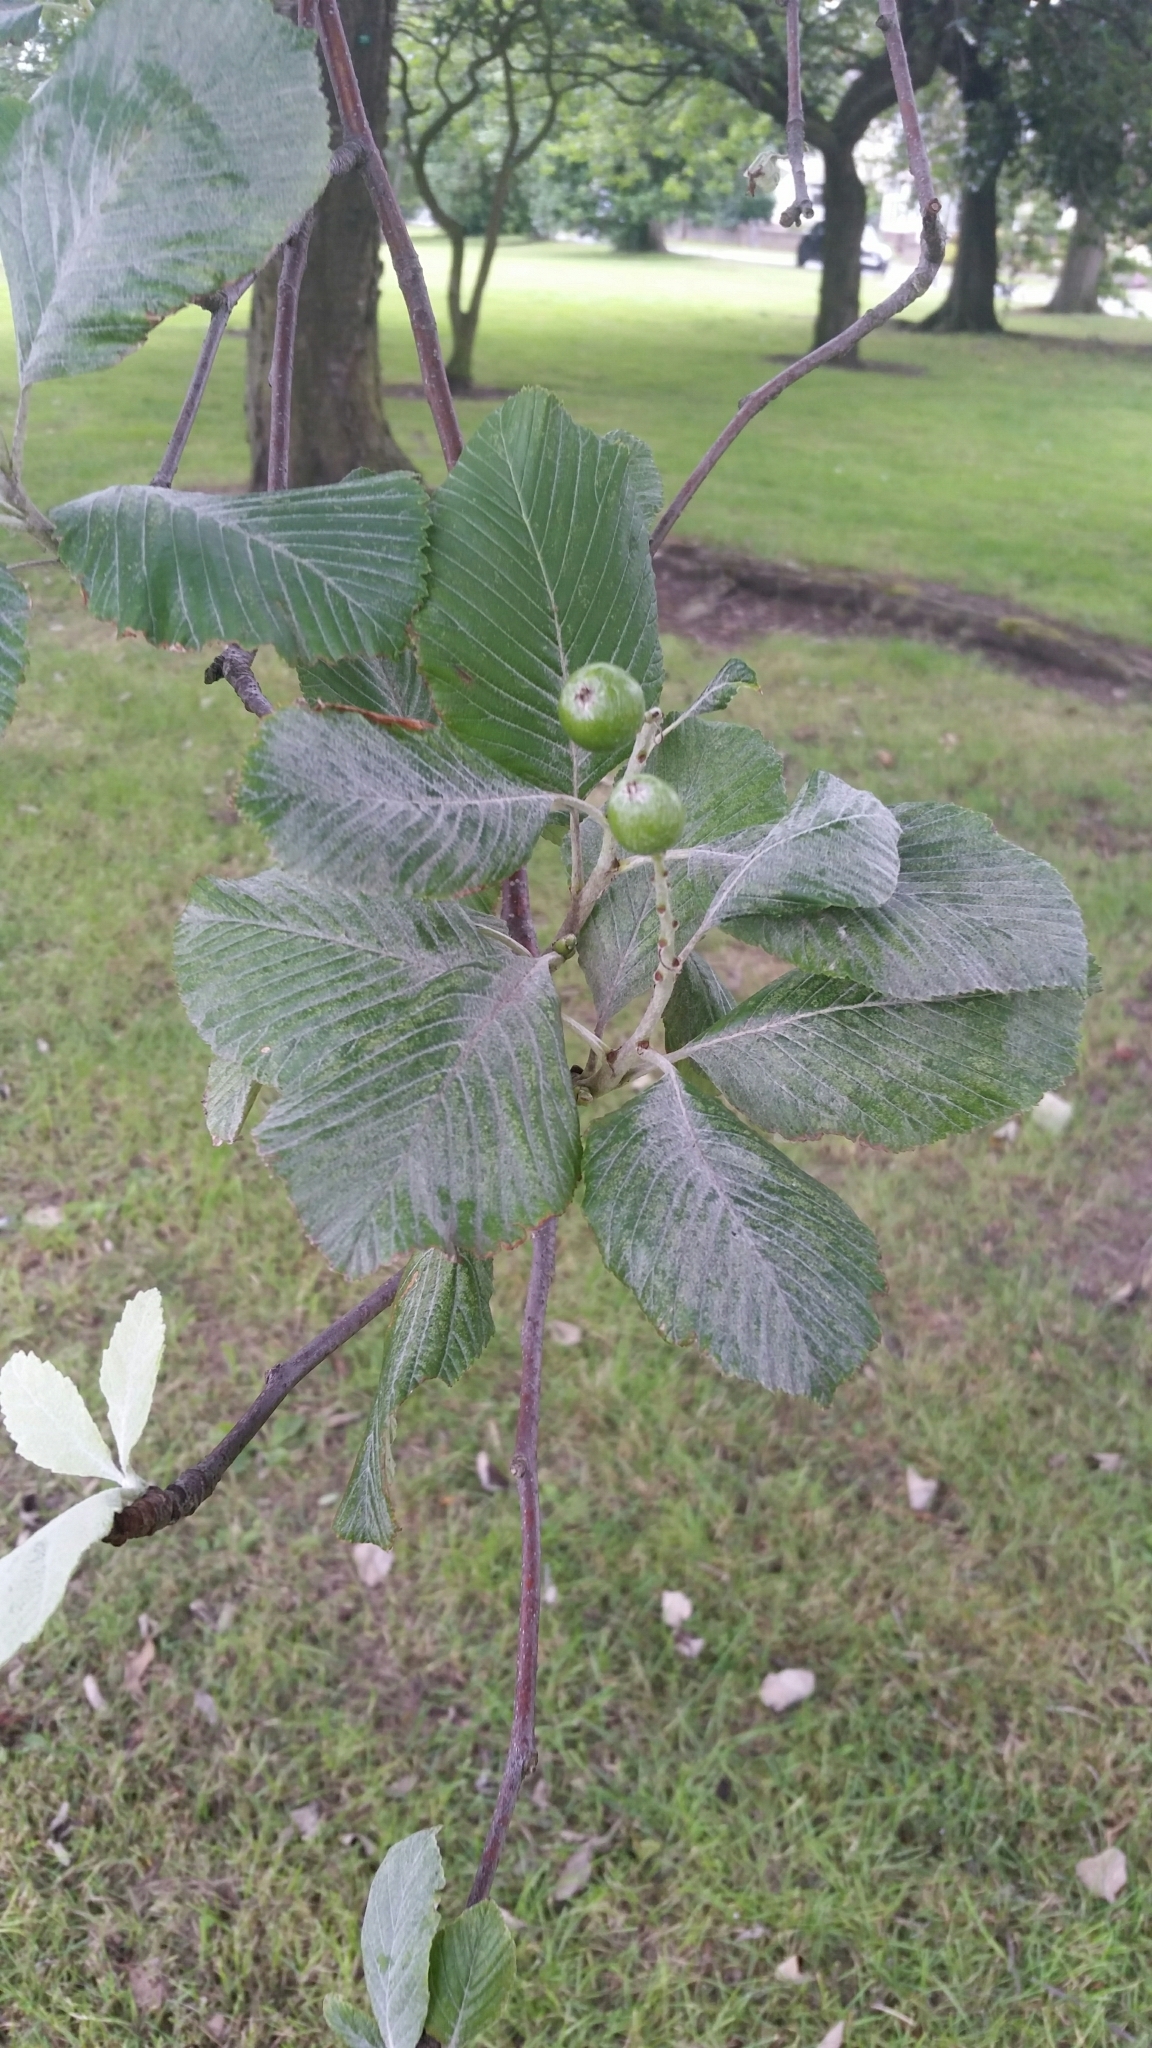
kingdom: Plantae
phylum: Tracheophyta
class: Magnoliopsida
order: Rosales
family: Rosaceae
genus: Aria
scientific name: Aria edulis
